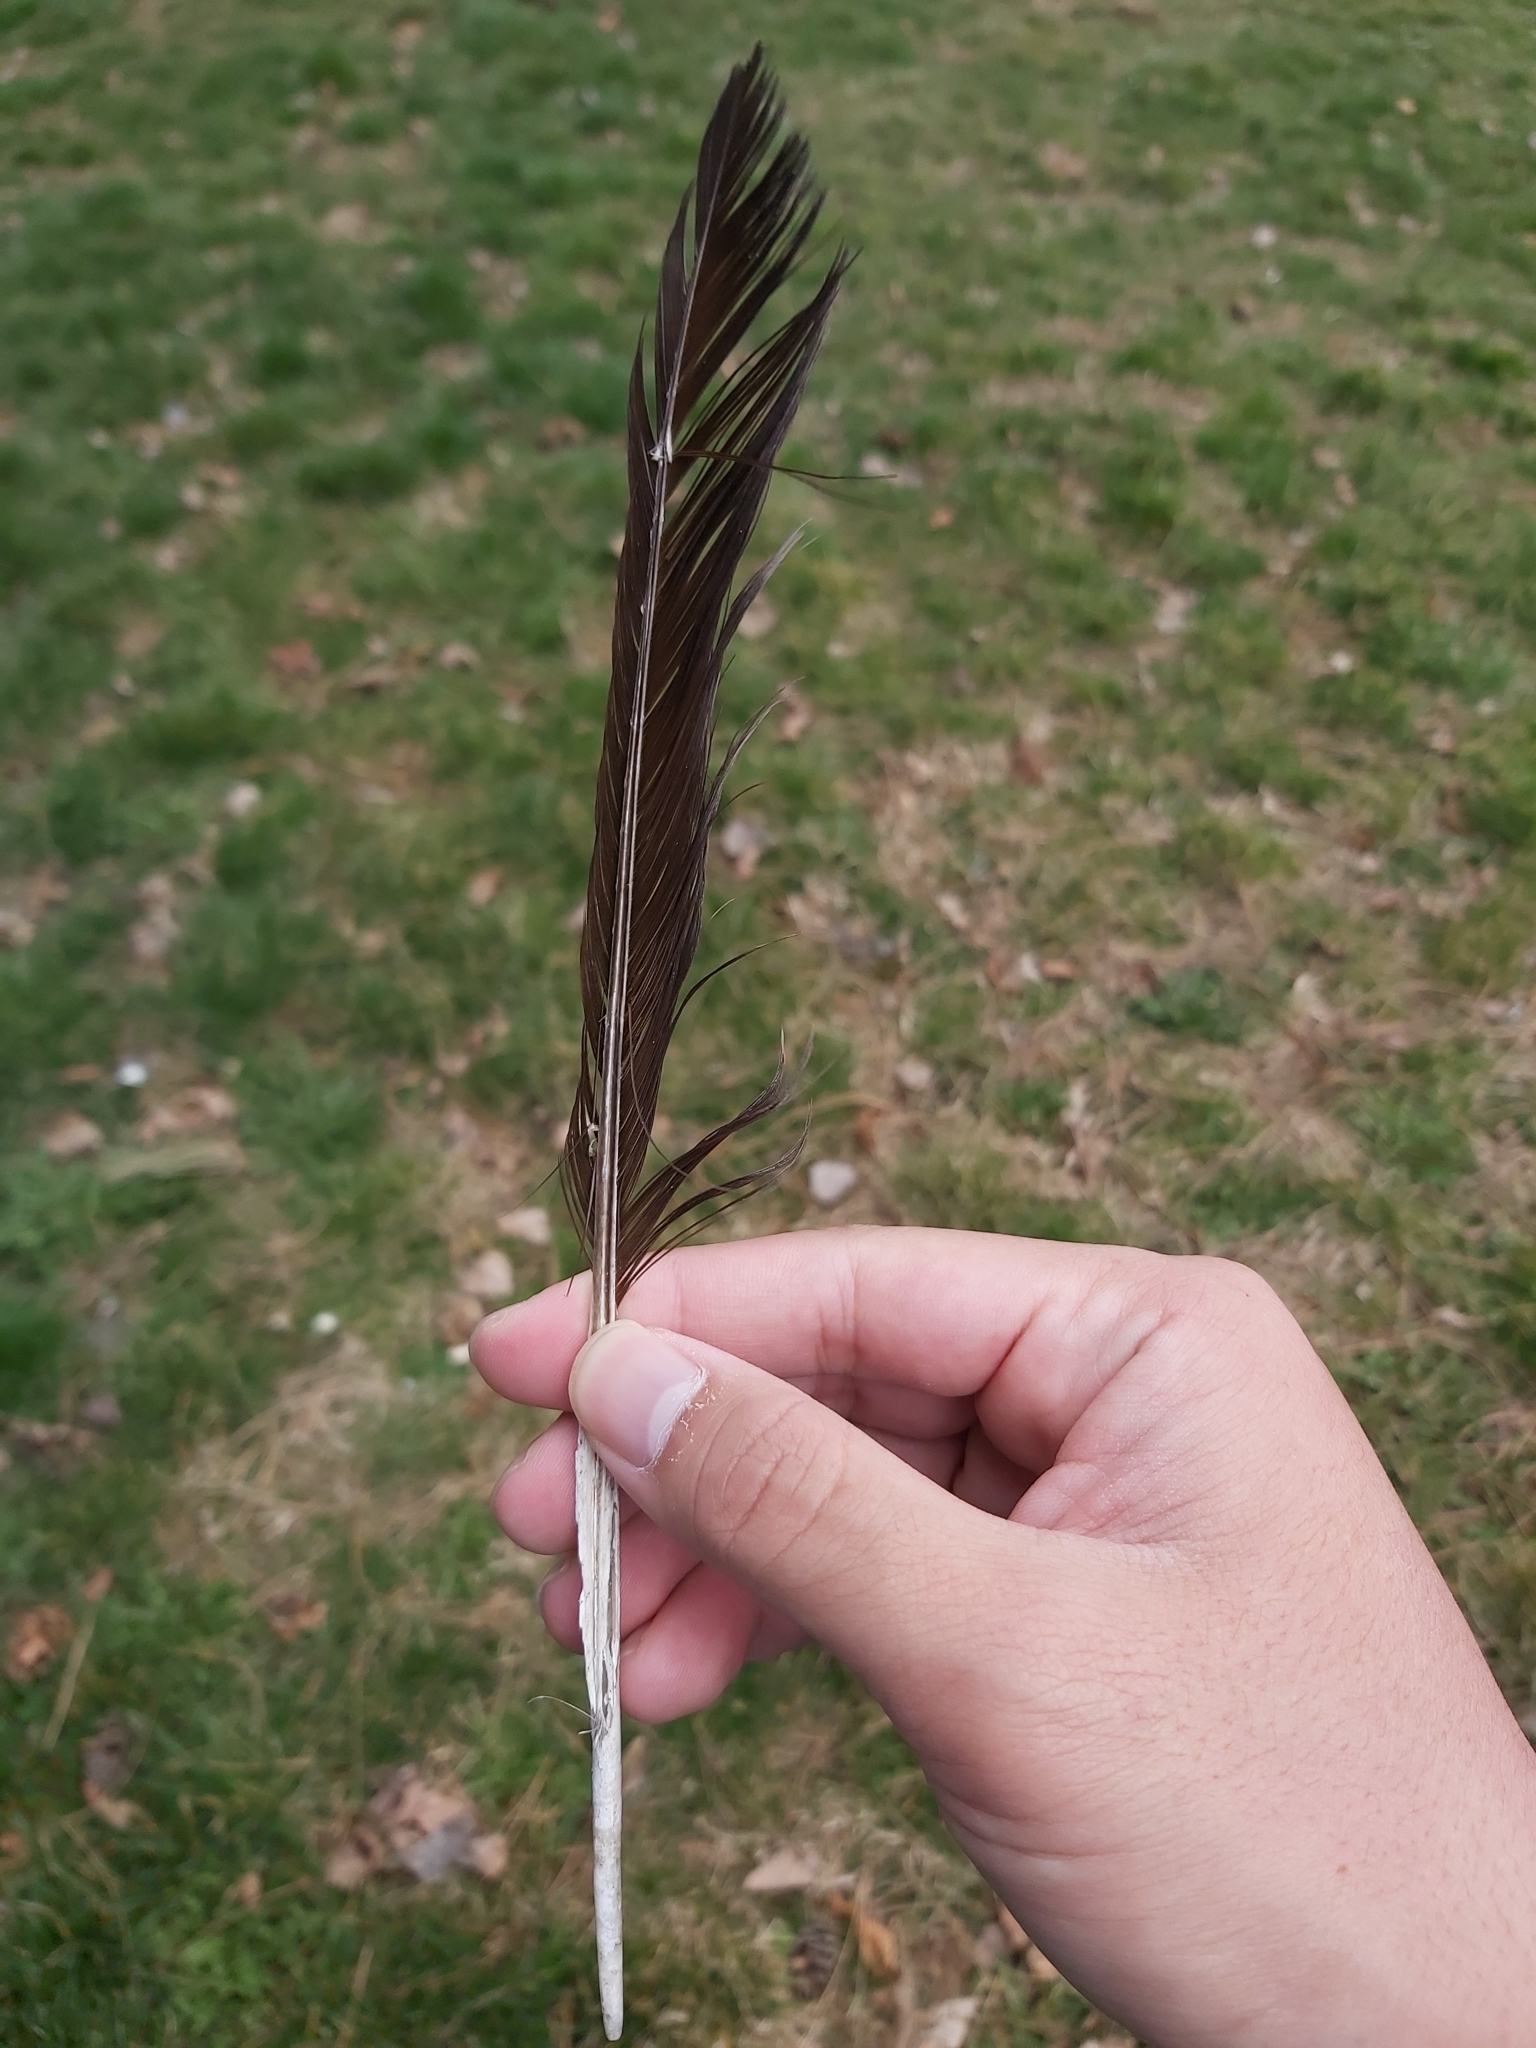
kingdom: Animalia
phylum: Chordata
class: Aves
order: Passeriformes
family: Corvidae
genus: Corvus
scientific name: Corvus cornix
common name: Hooded crow
